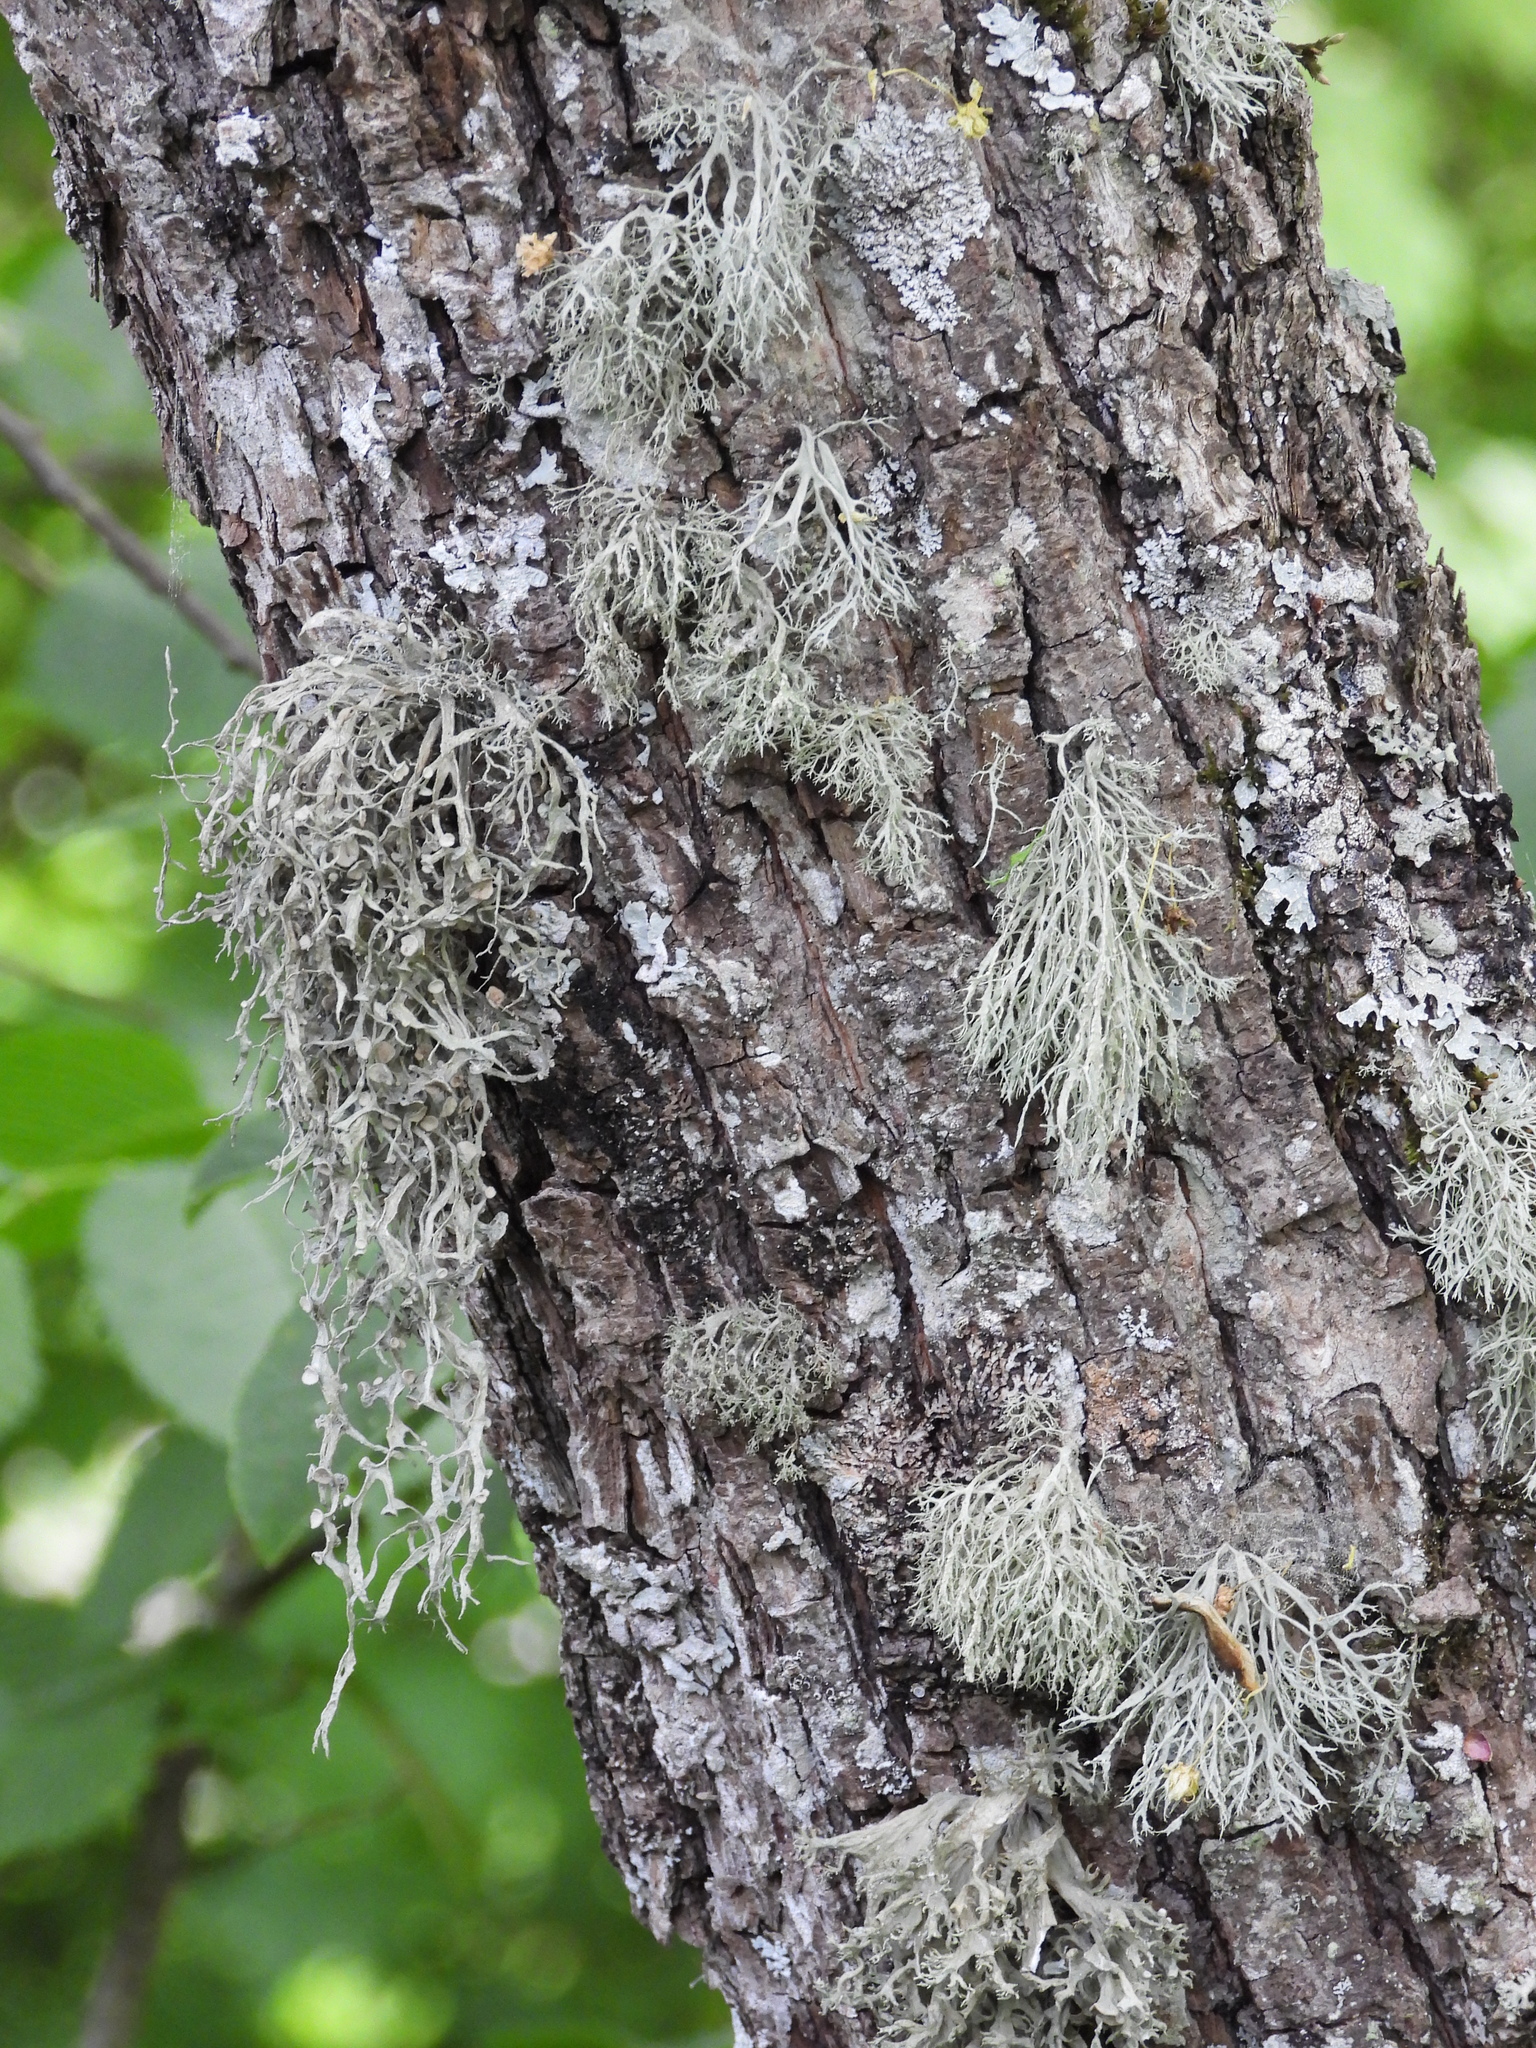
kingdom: Fungi
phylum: Ascomycota
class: Lecanoromycetes
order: Lecanorales
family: Ramalinaceae
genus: Ramalina
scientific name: Ramalina fraxinea
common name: Cartilage lichen
